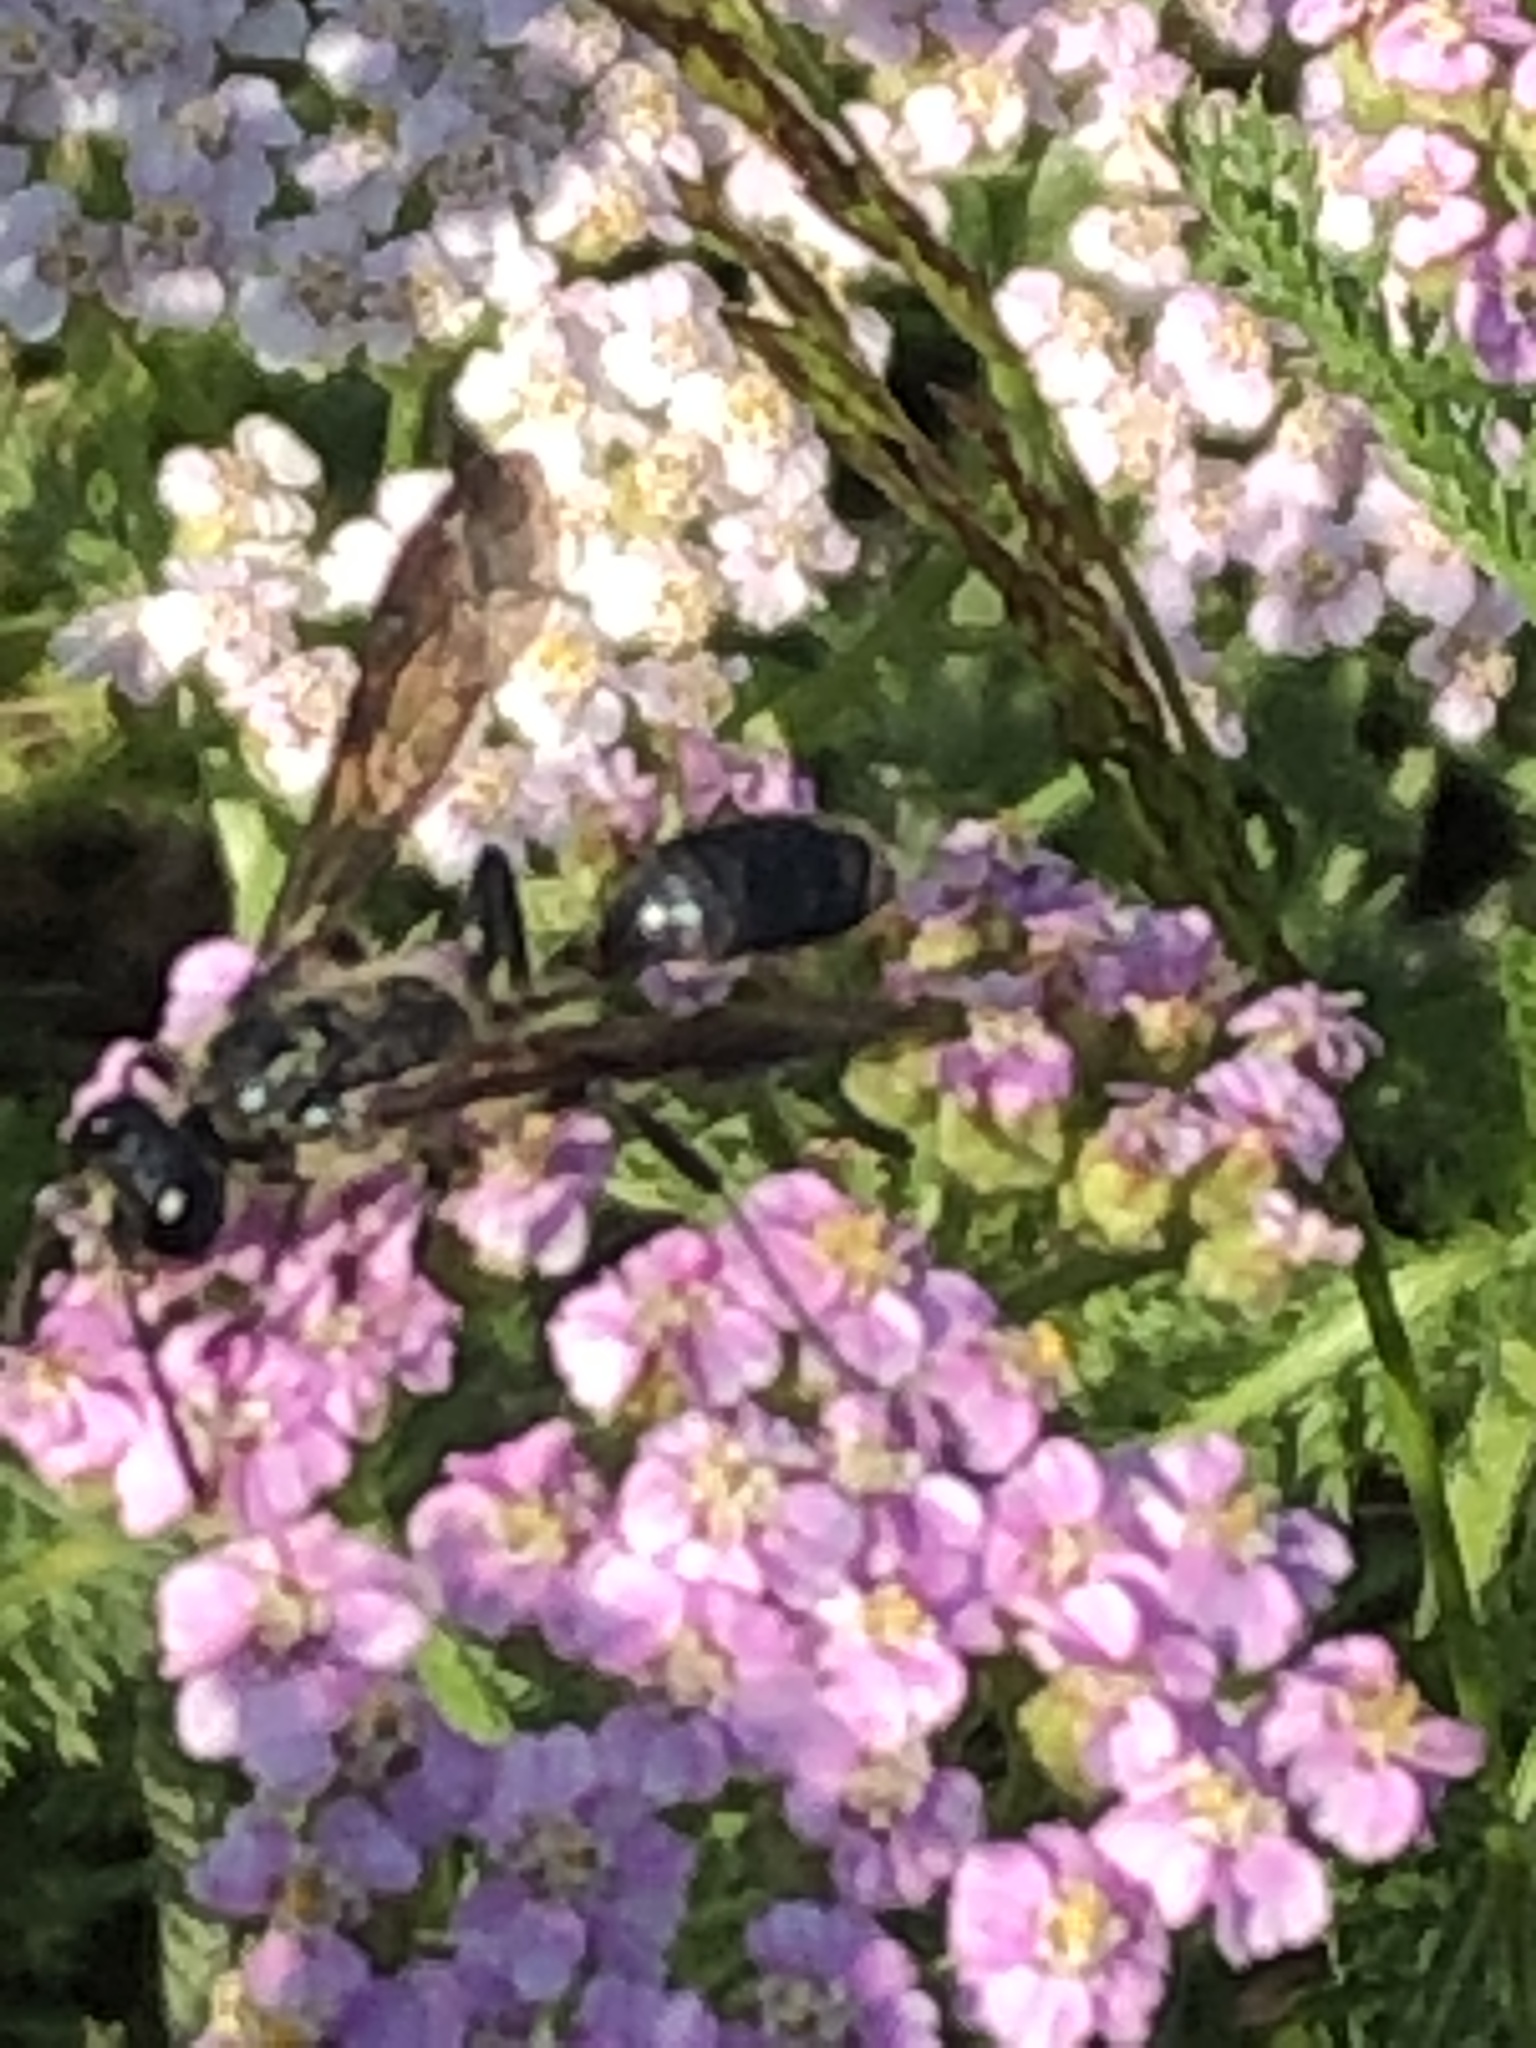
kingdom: Animalia
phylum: Arthropoda
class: Insecta
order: Hymenoptera
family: Sphecidae
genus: Isodontia
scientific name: Isodontia mexicana
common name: Mud dauber
